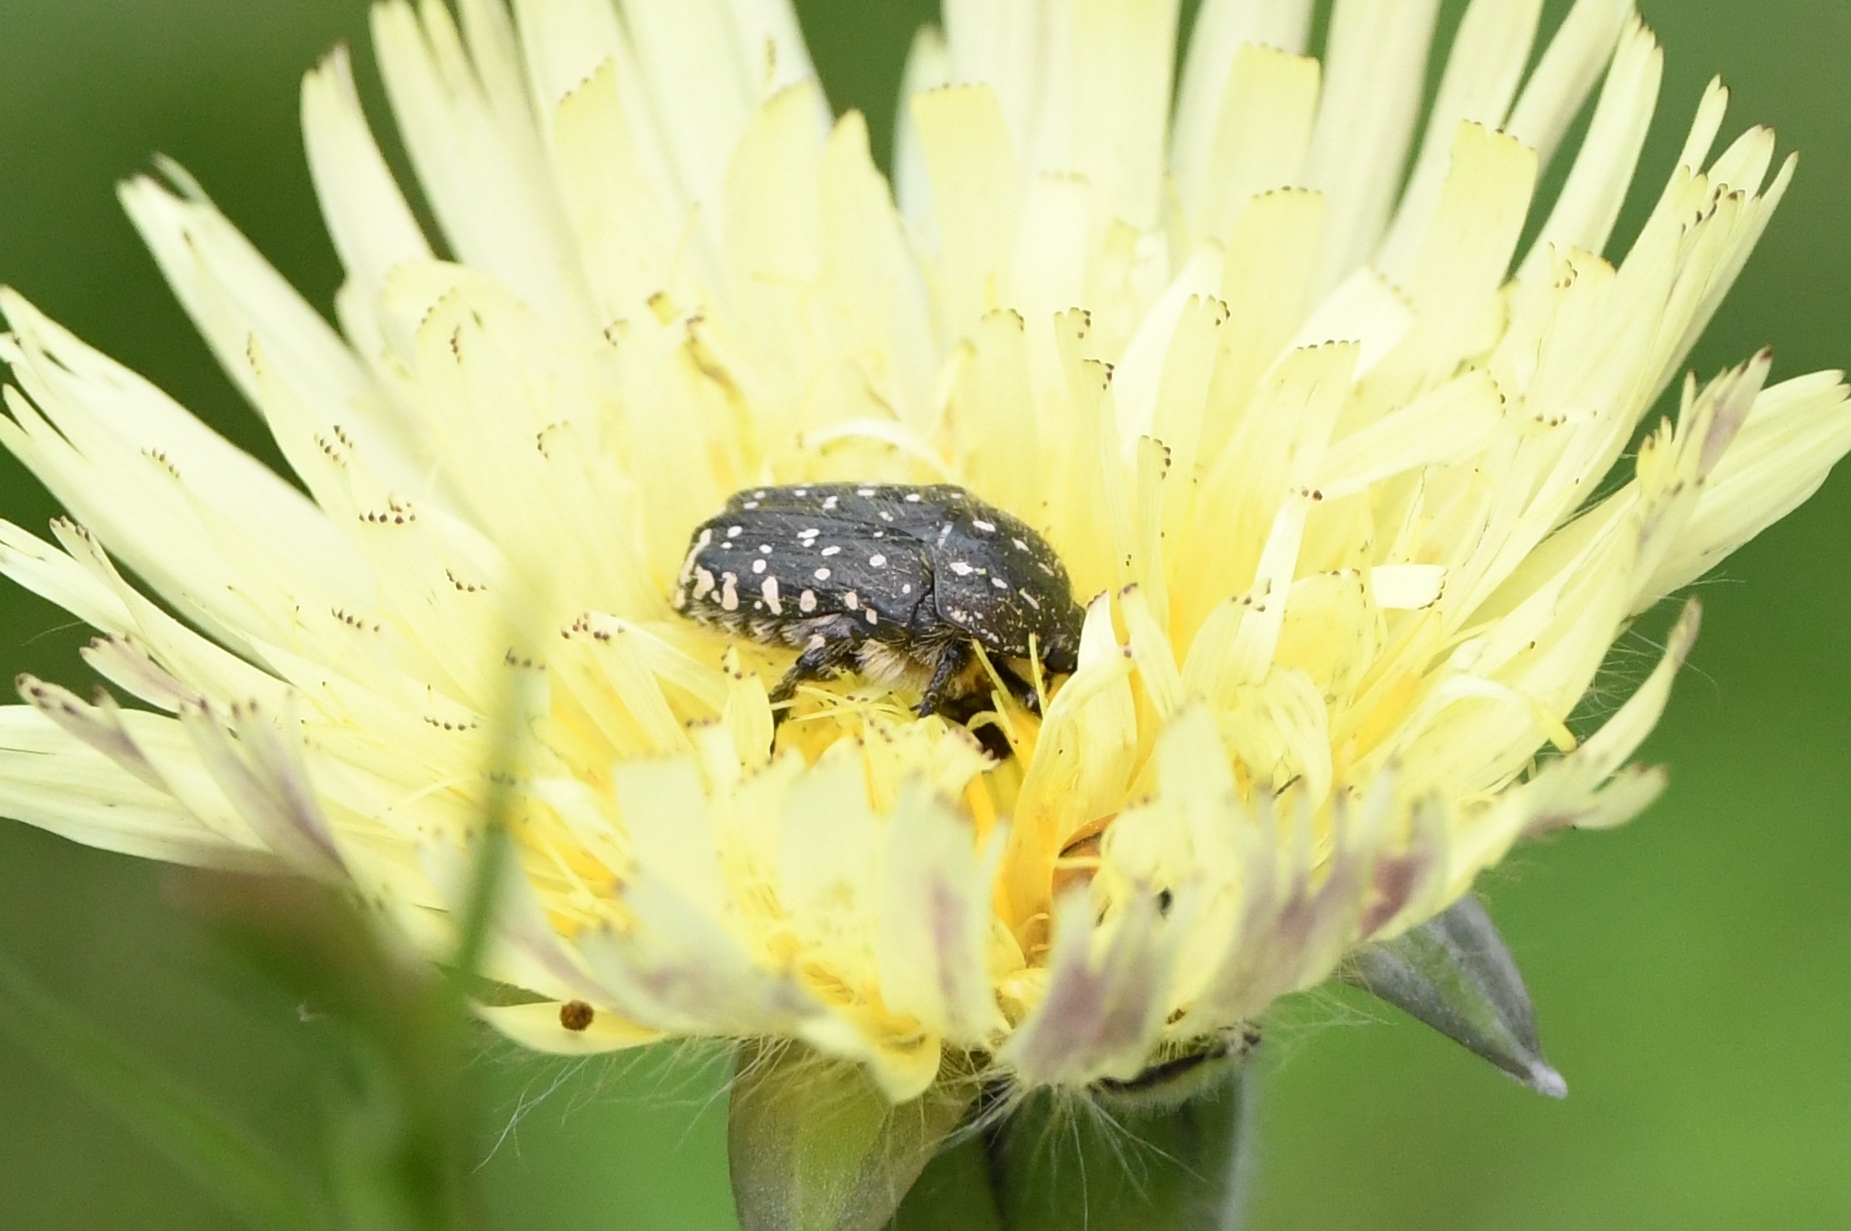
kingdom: Animalia
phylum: Arthropoda
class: Insecta
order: Coleoptera
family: Scarabaeidae
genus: Oxythyrea
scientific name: Oxythyrea funesta
